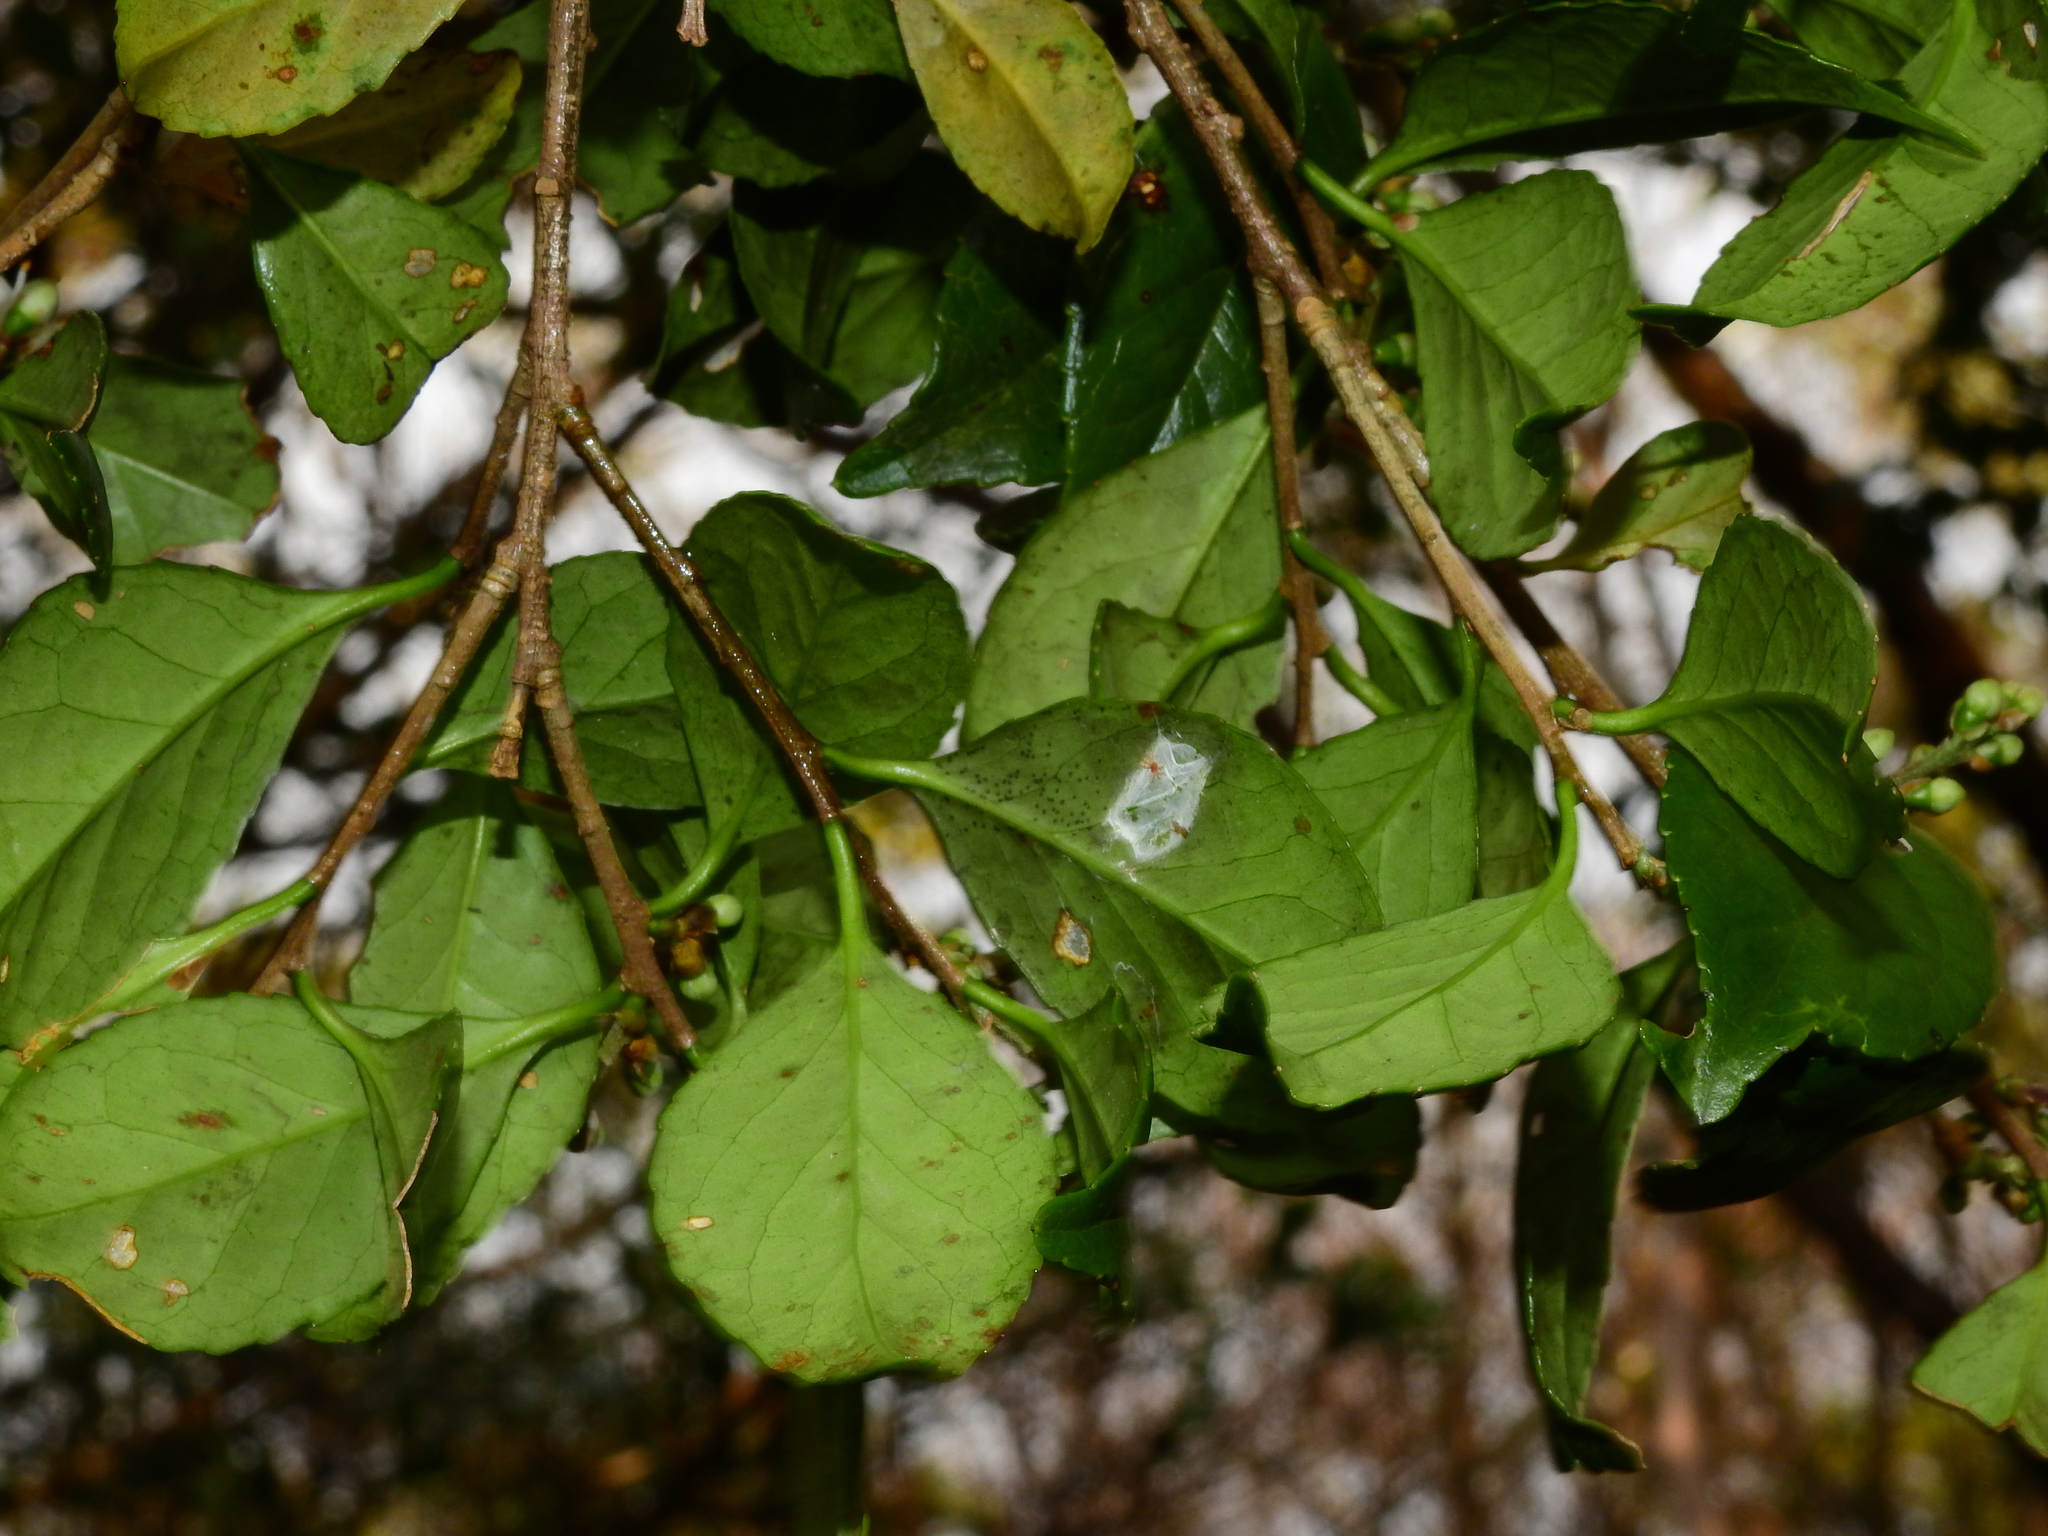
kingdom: Plantae
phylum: Tracheophyta
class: Magnoliopsida
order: Ericales
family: Symplocaceae
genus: Symplocos
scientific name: Symplocos sumuntia
